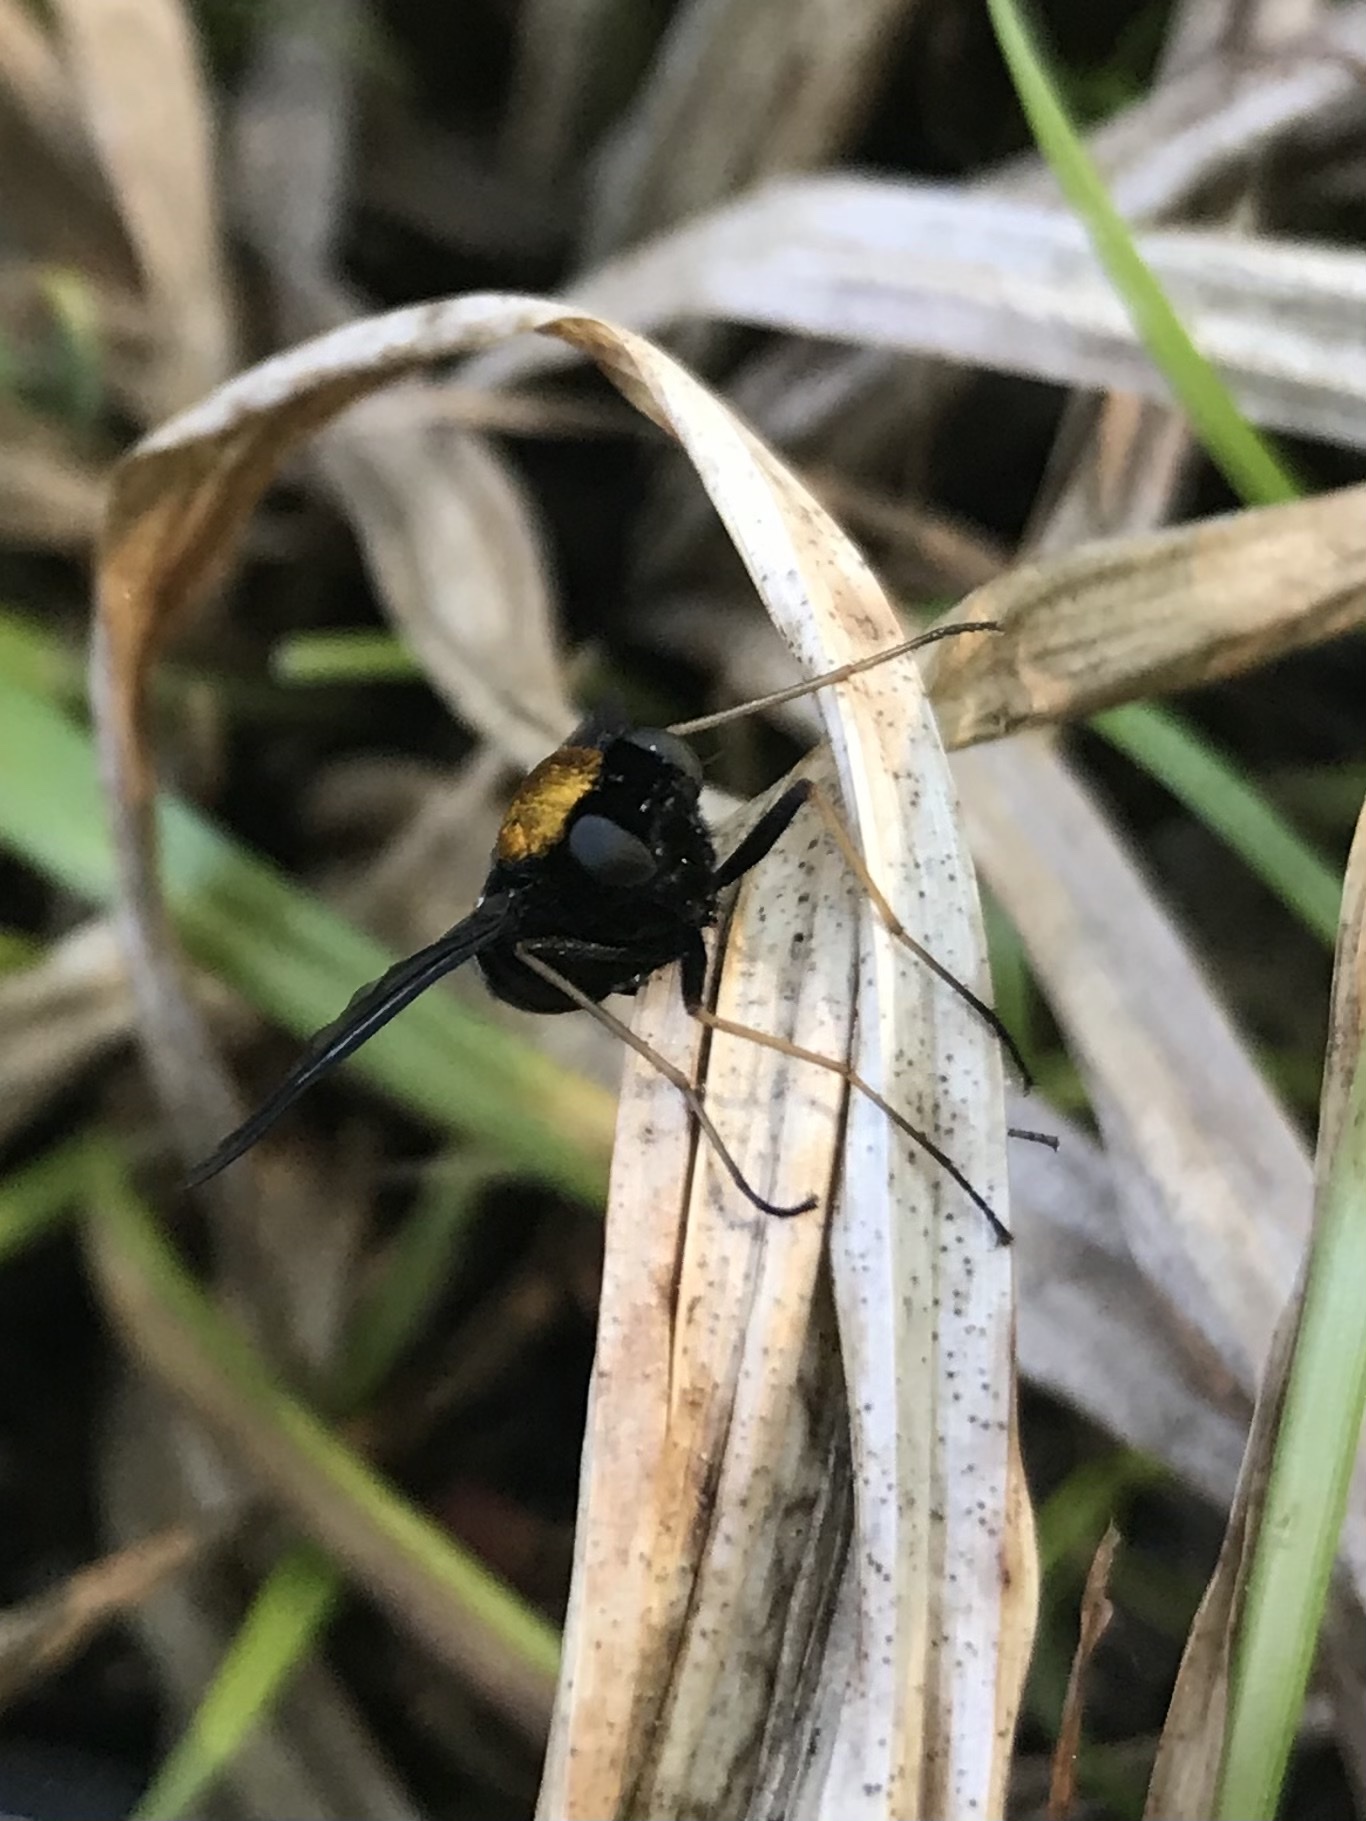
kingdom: Animalia
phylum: Arthropoda
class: Insecta
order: Diptera
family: Rhagionidae
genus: Chrysopilus
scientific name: Chrysopilus thoracicus
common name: Golden-backed snipe fly
